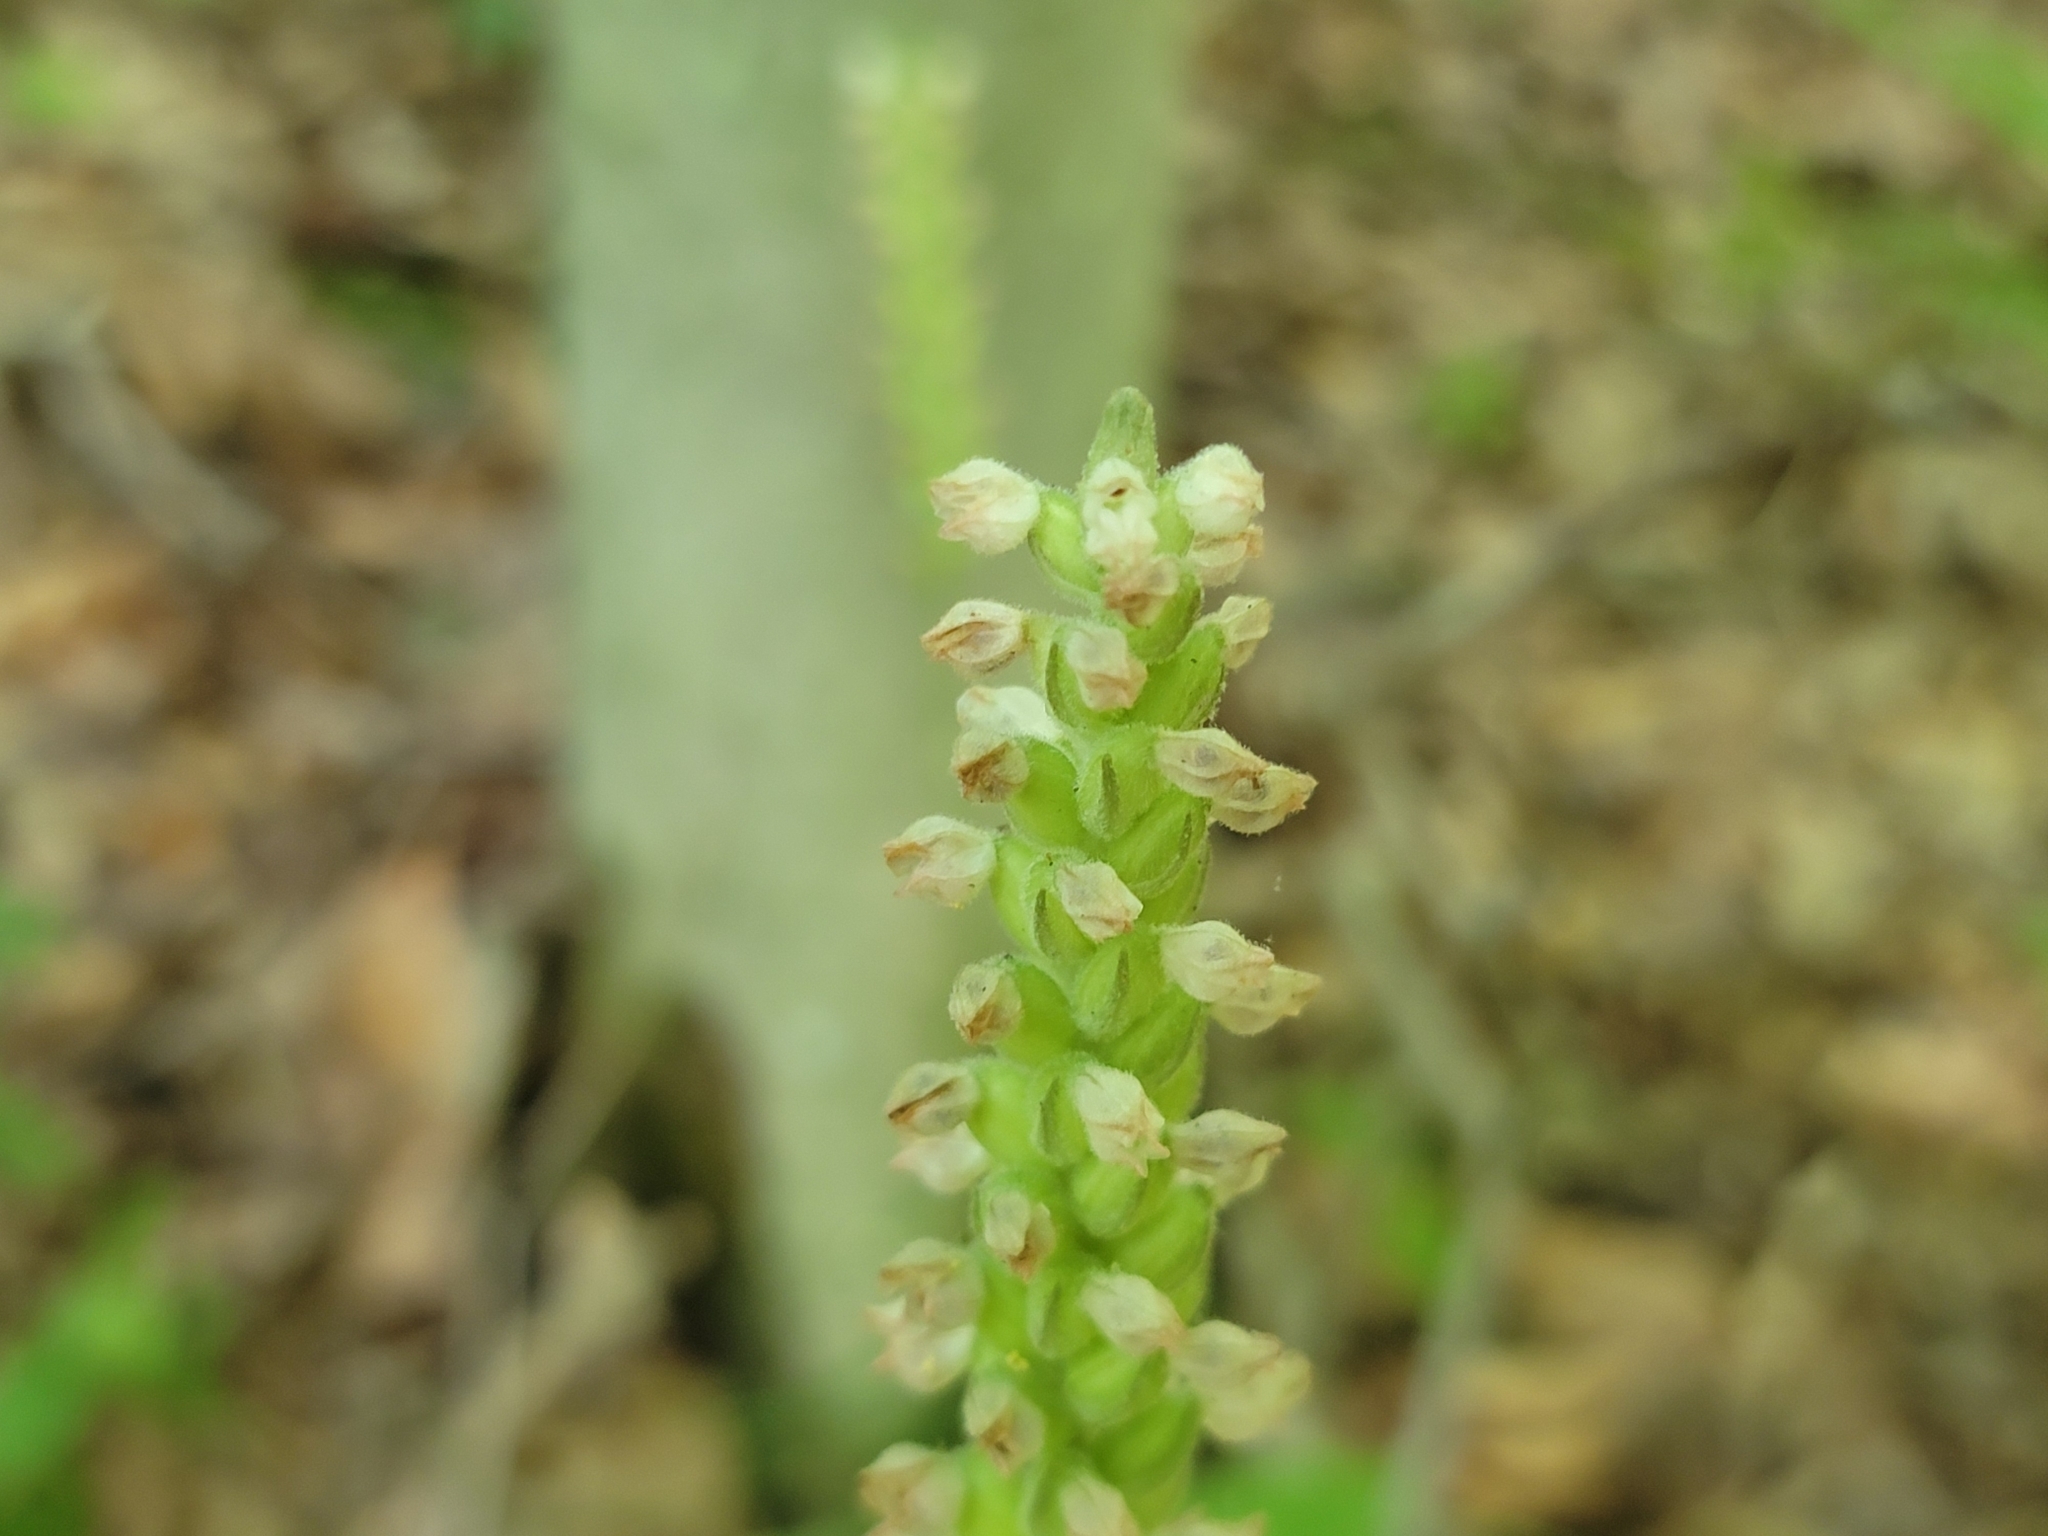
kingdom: Plantae
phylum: Tracheophyta
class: Liliopsida
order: Asparagales
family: Orchidaceae
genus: Goodyera
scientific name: Goodyera pubescens
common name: Downy rattlesnake-plantain
